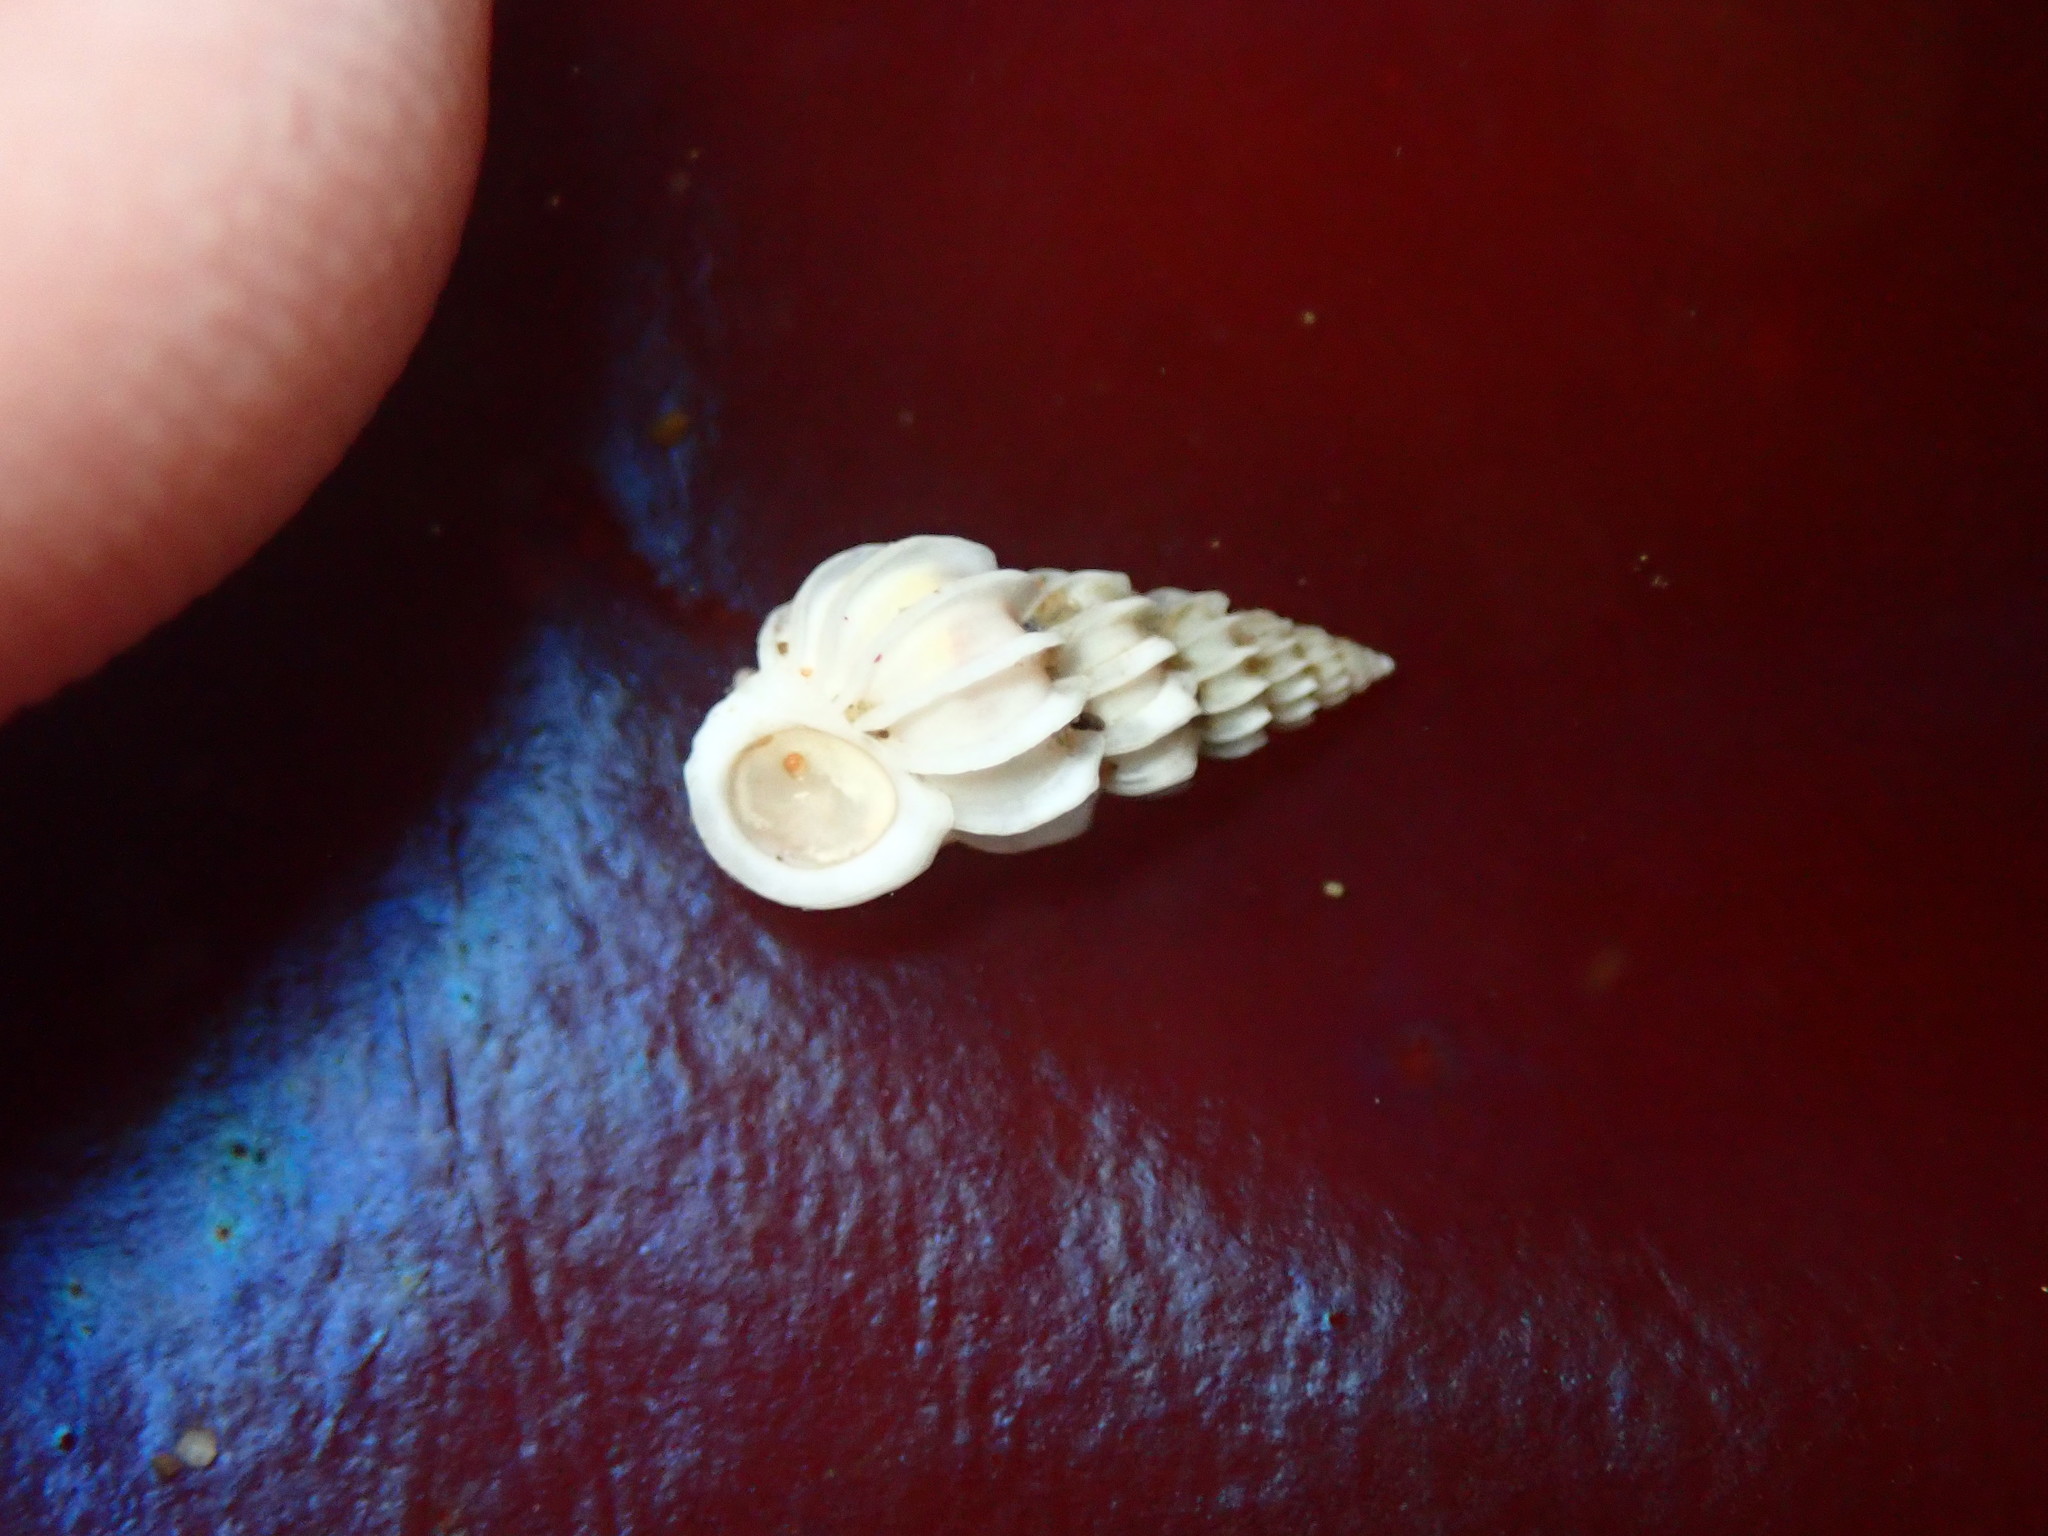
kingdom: Animalia
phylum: Mollusca
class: Gastropoda
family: Epitoniidae
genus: Epitonium
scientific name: Epitonium tinctum
